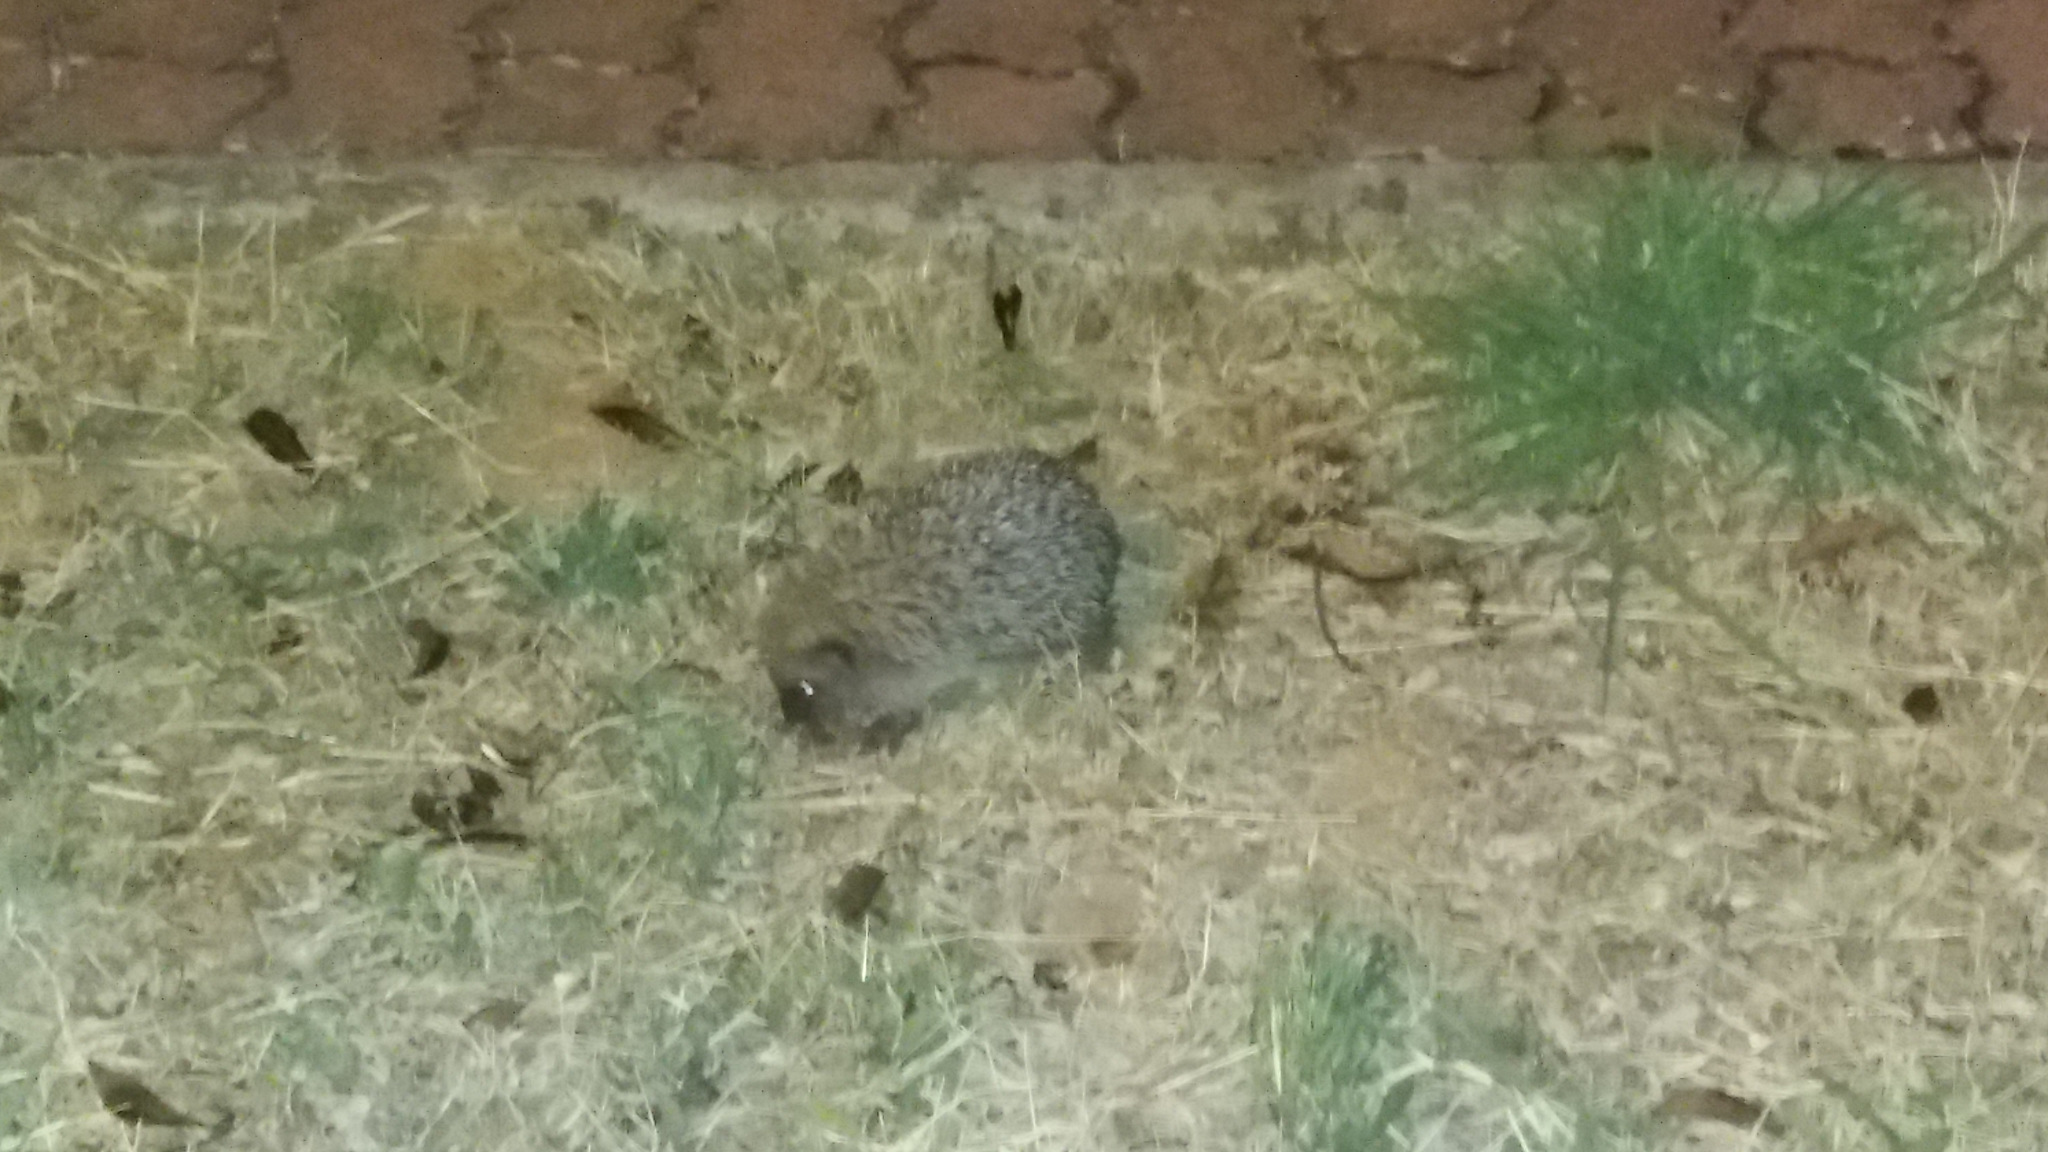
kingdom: Animalia
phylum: Chordata
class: Mammalia
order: Erinaceomorpha
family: Erinaceidae
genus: Erinaceus
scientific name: Erinaceus europaeus
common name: West european hedgehog
